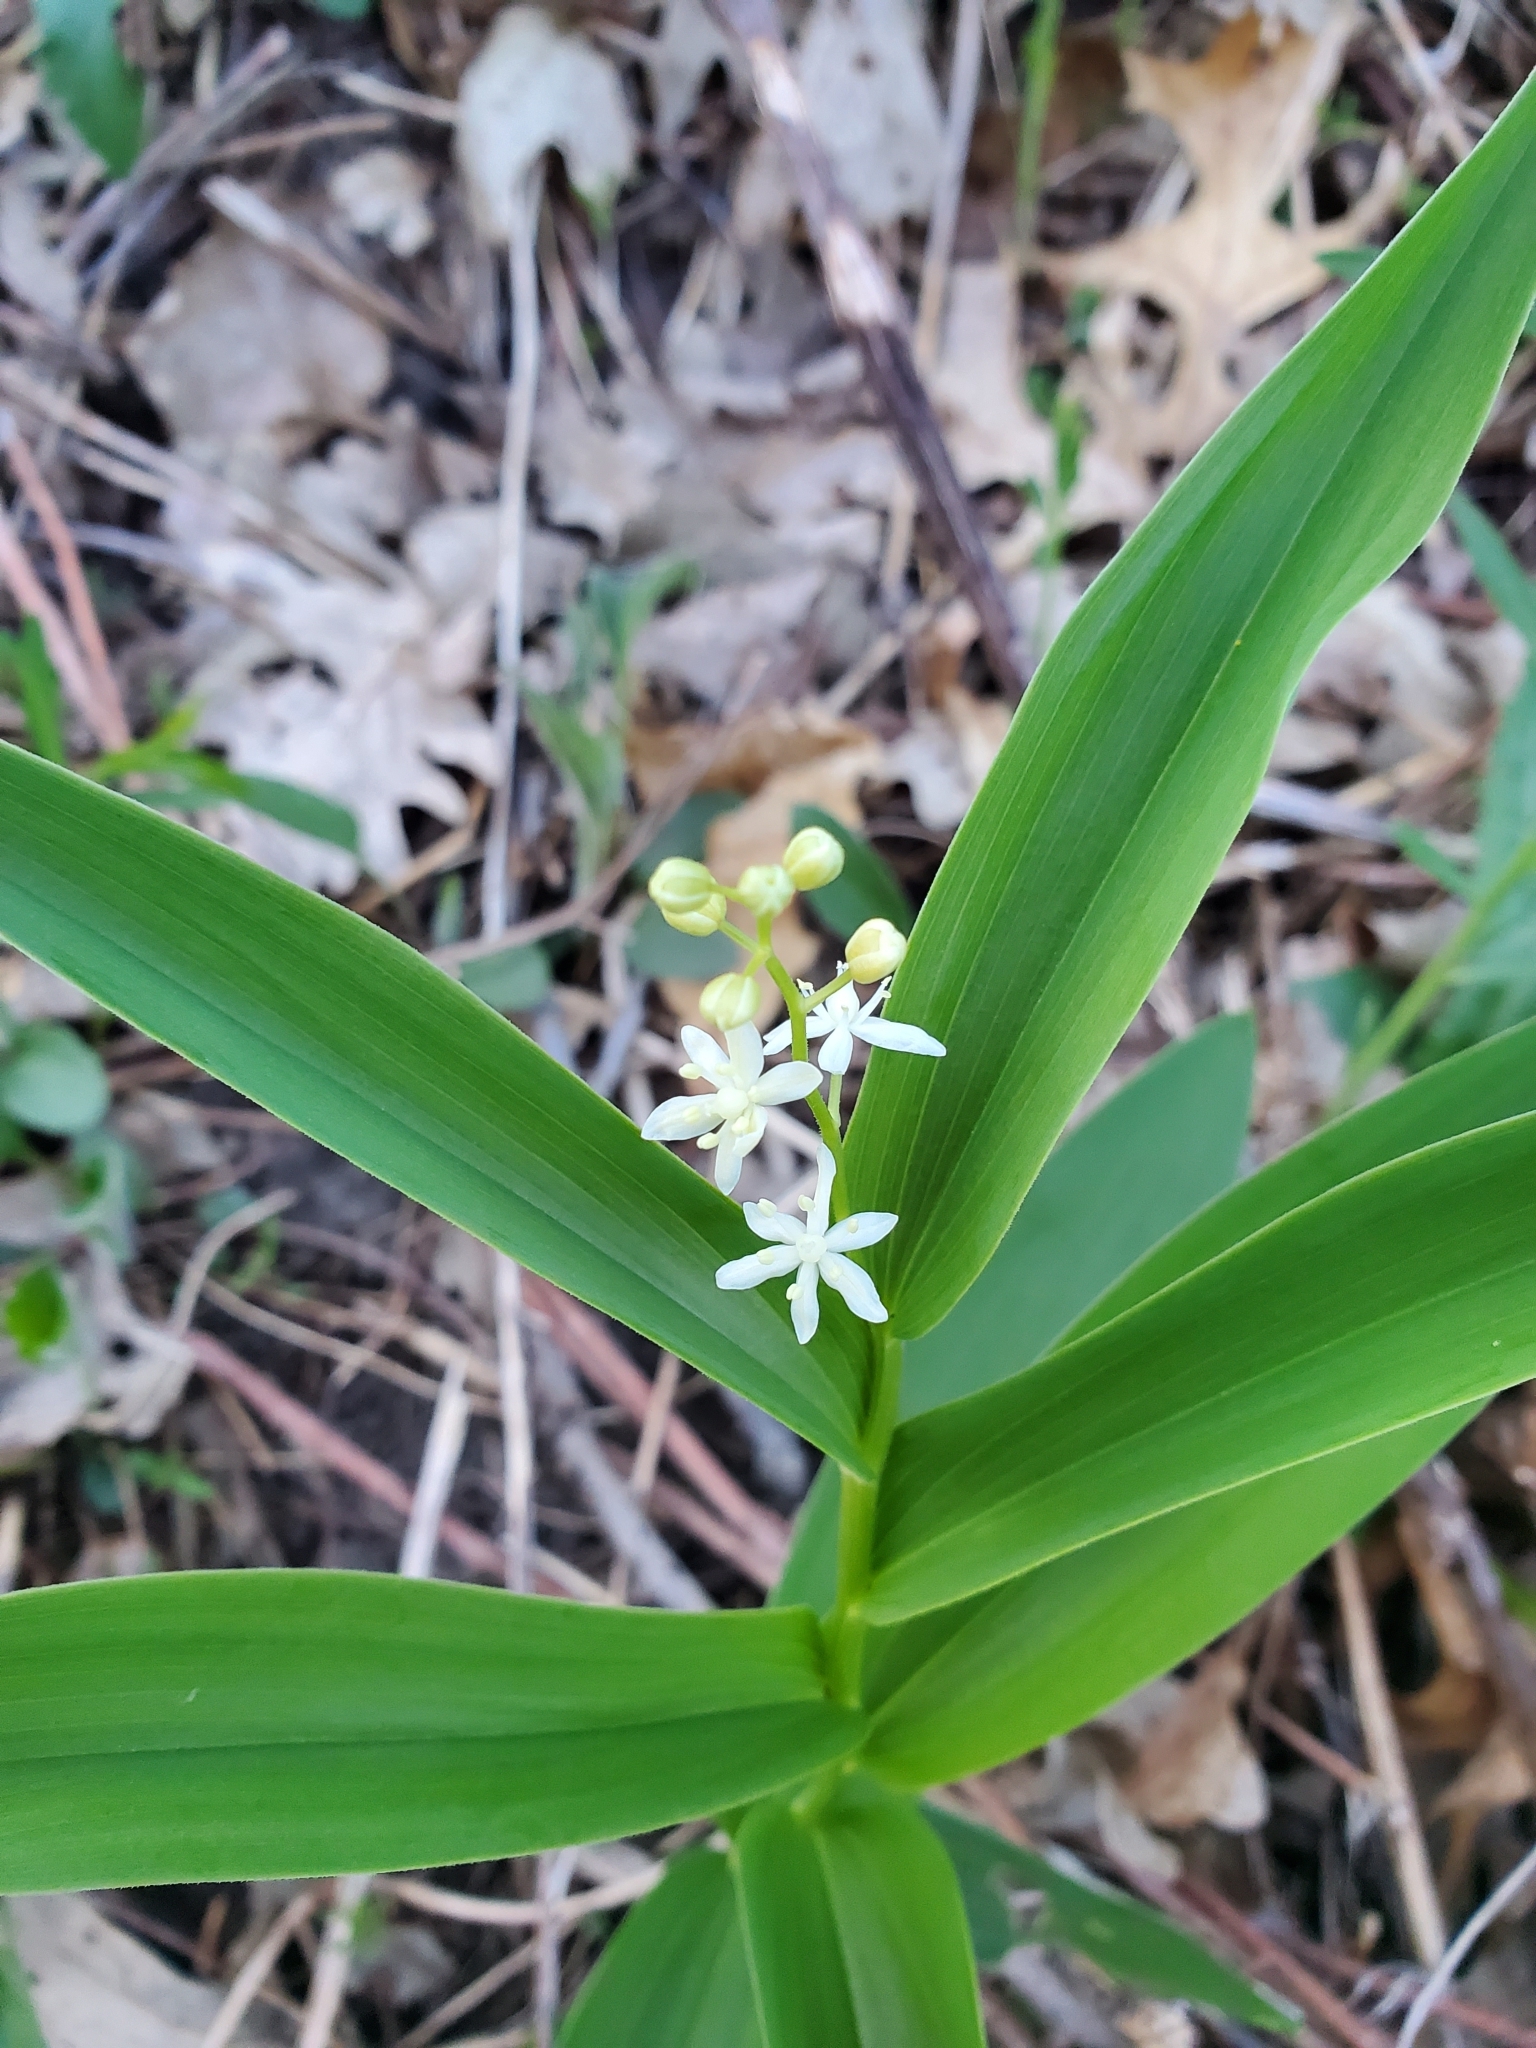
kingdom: Plantae
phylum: Tracheophyta
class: Liliopsida
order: Asparagales
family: Asparagaceae
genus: Maianthemum
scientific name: Maianthemum stellatum
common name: Little false solomon's seal
